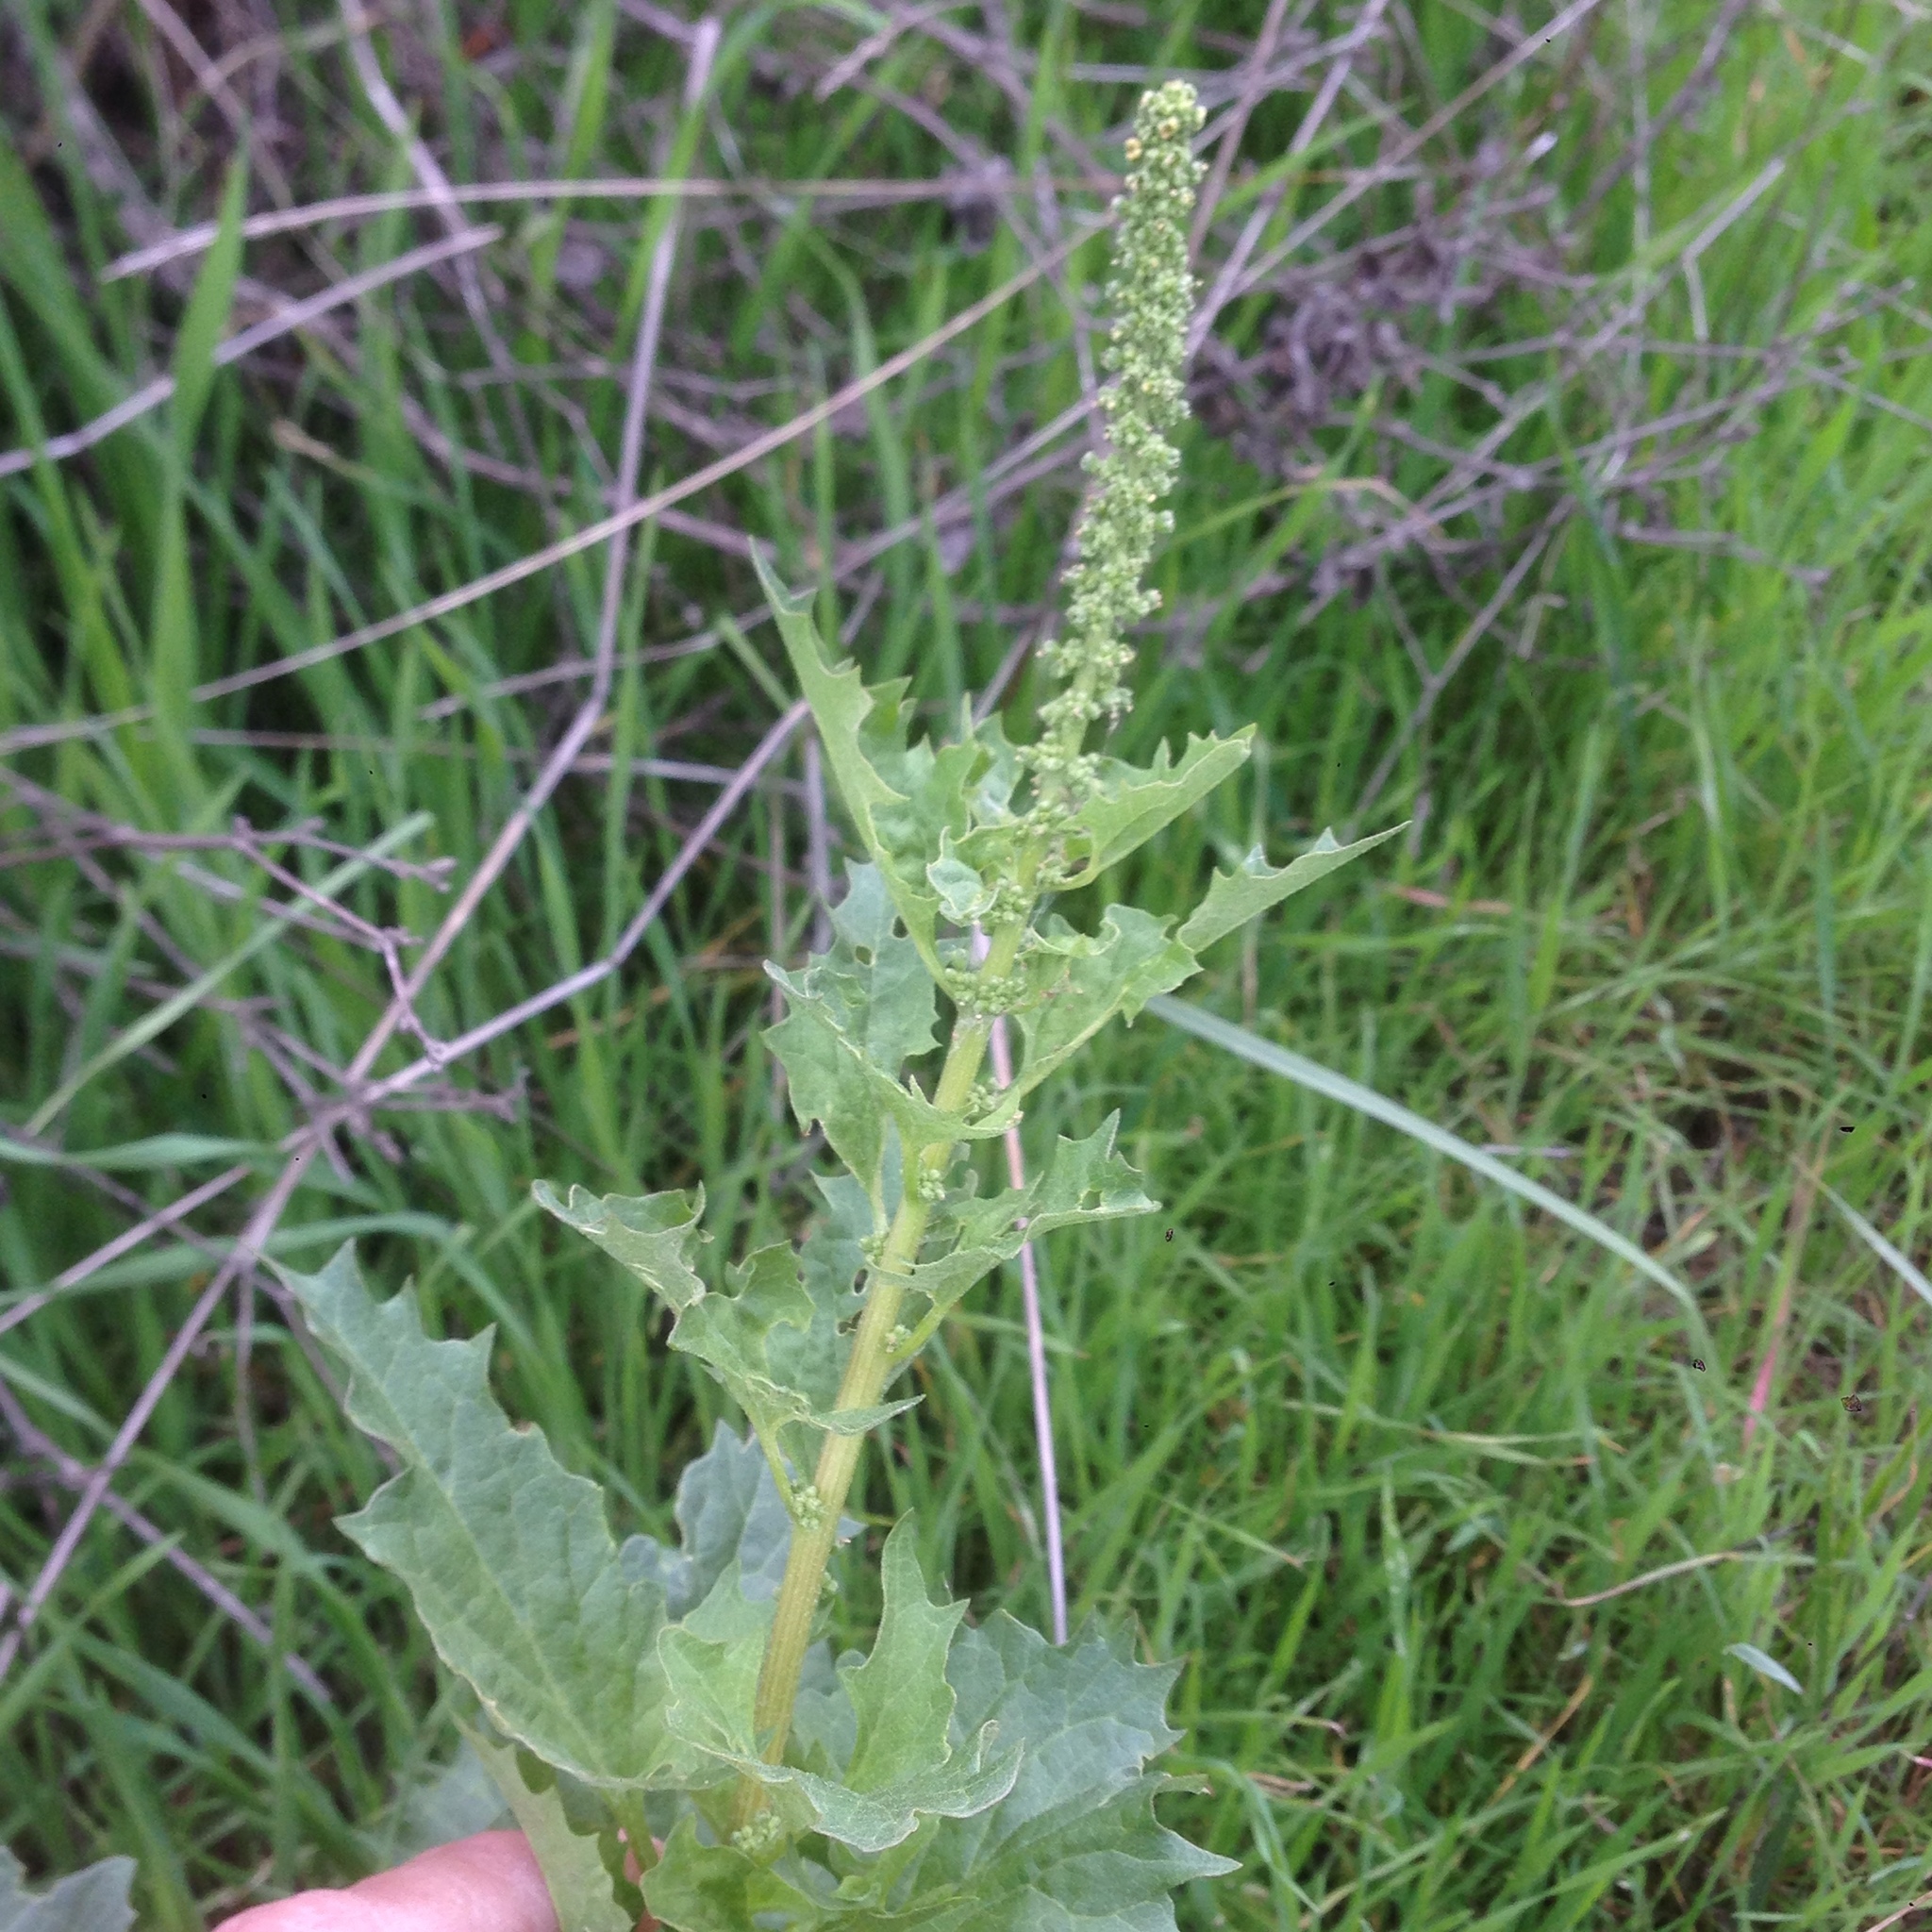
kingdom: Plantae
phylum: Tracheophyta
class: Magnoliopsida
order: Caryophyllales
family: Amaranthaceae
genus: Blitum
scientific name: Blitum californicum
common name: California goosefoot
